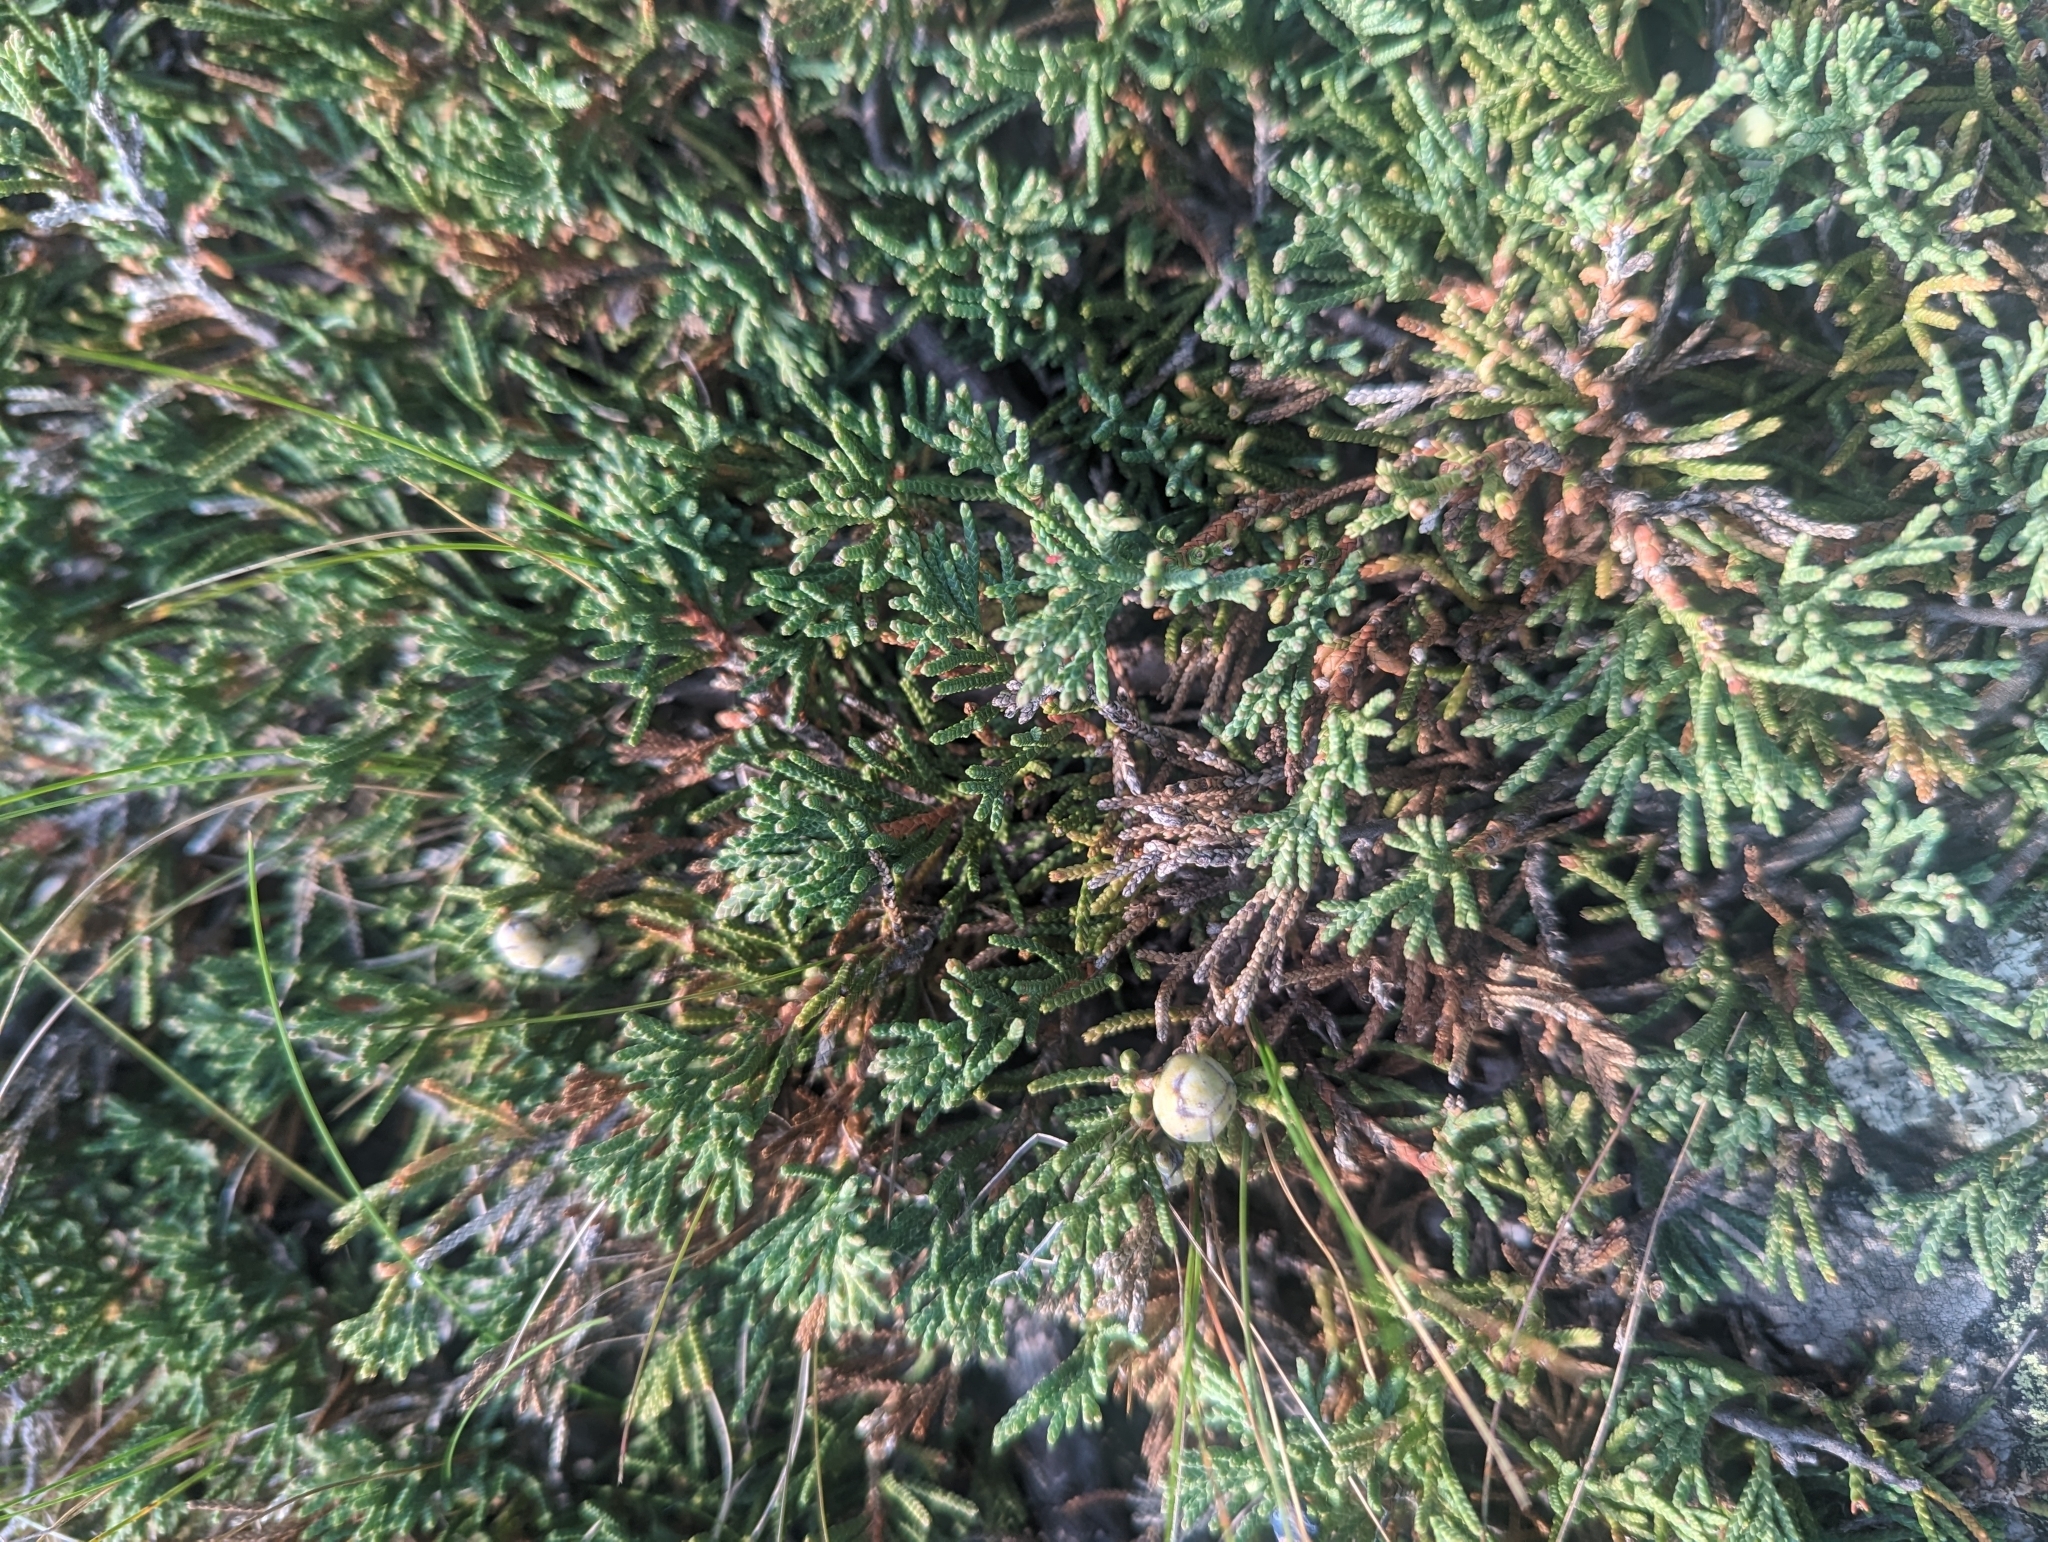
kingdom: Plantae
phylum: Tracheophyta
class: Pinopsida
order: Pinales
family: Cupressaceae
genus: Juniperus
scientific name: Juniperus horizontalis
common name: Creeping juniper
